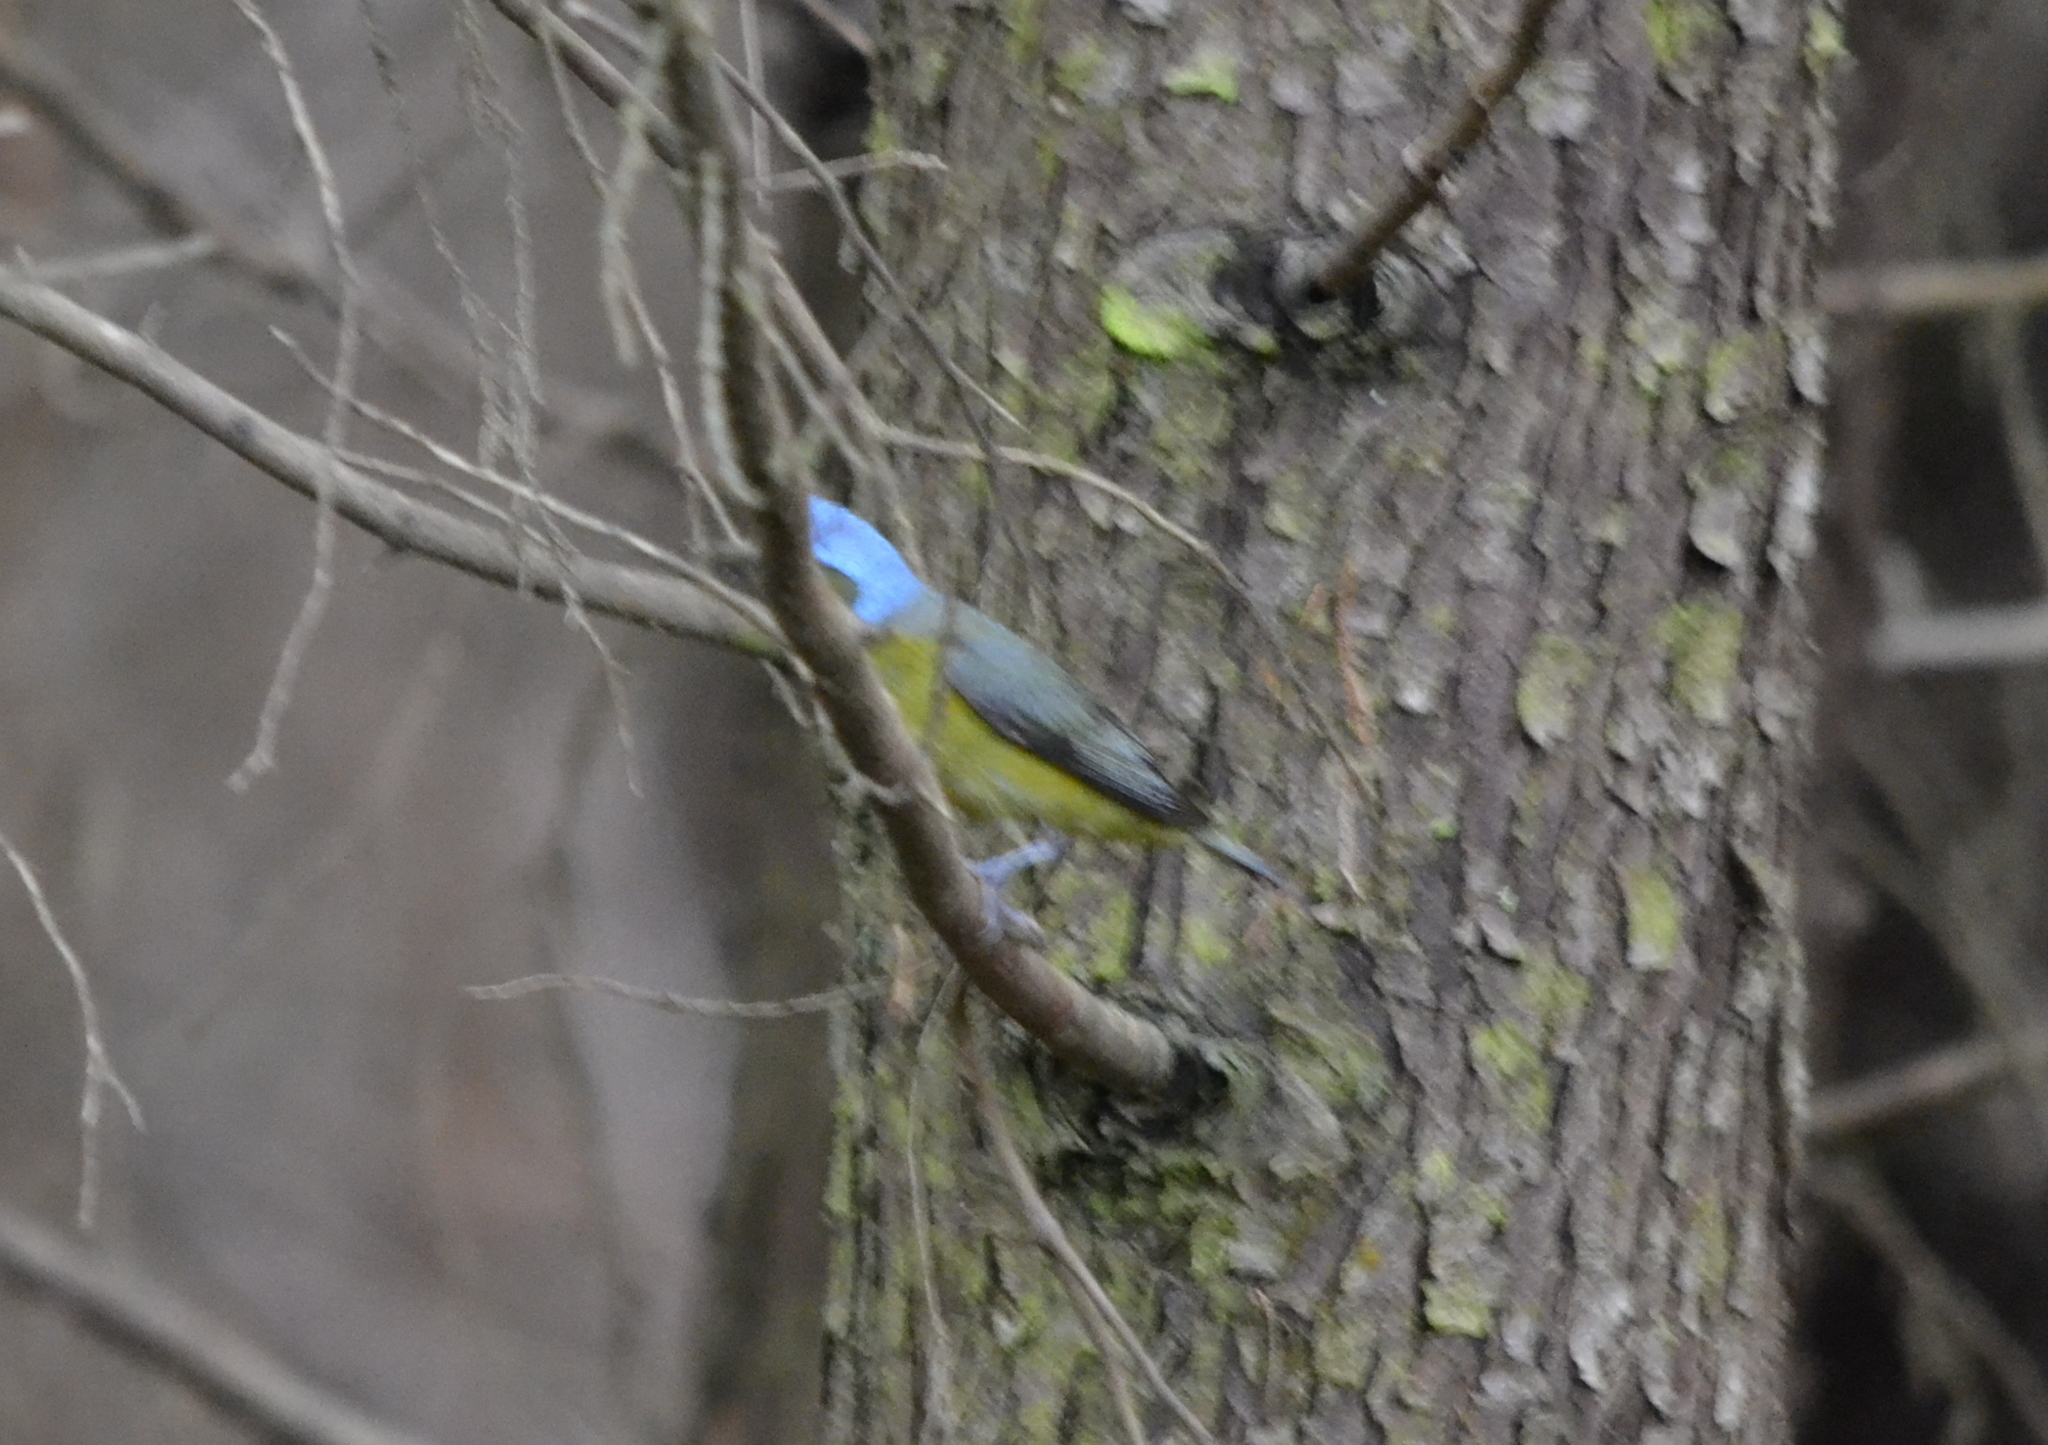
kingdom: Animalia
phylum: Chordata
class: Aves
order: Passeriformes
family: Fringillidae
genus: Euphonia
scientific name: Euphonia elegantissima
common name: Elegant euphonia
